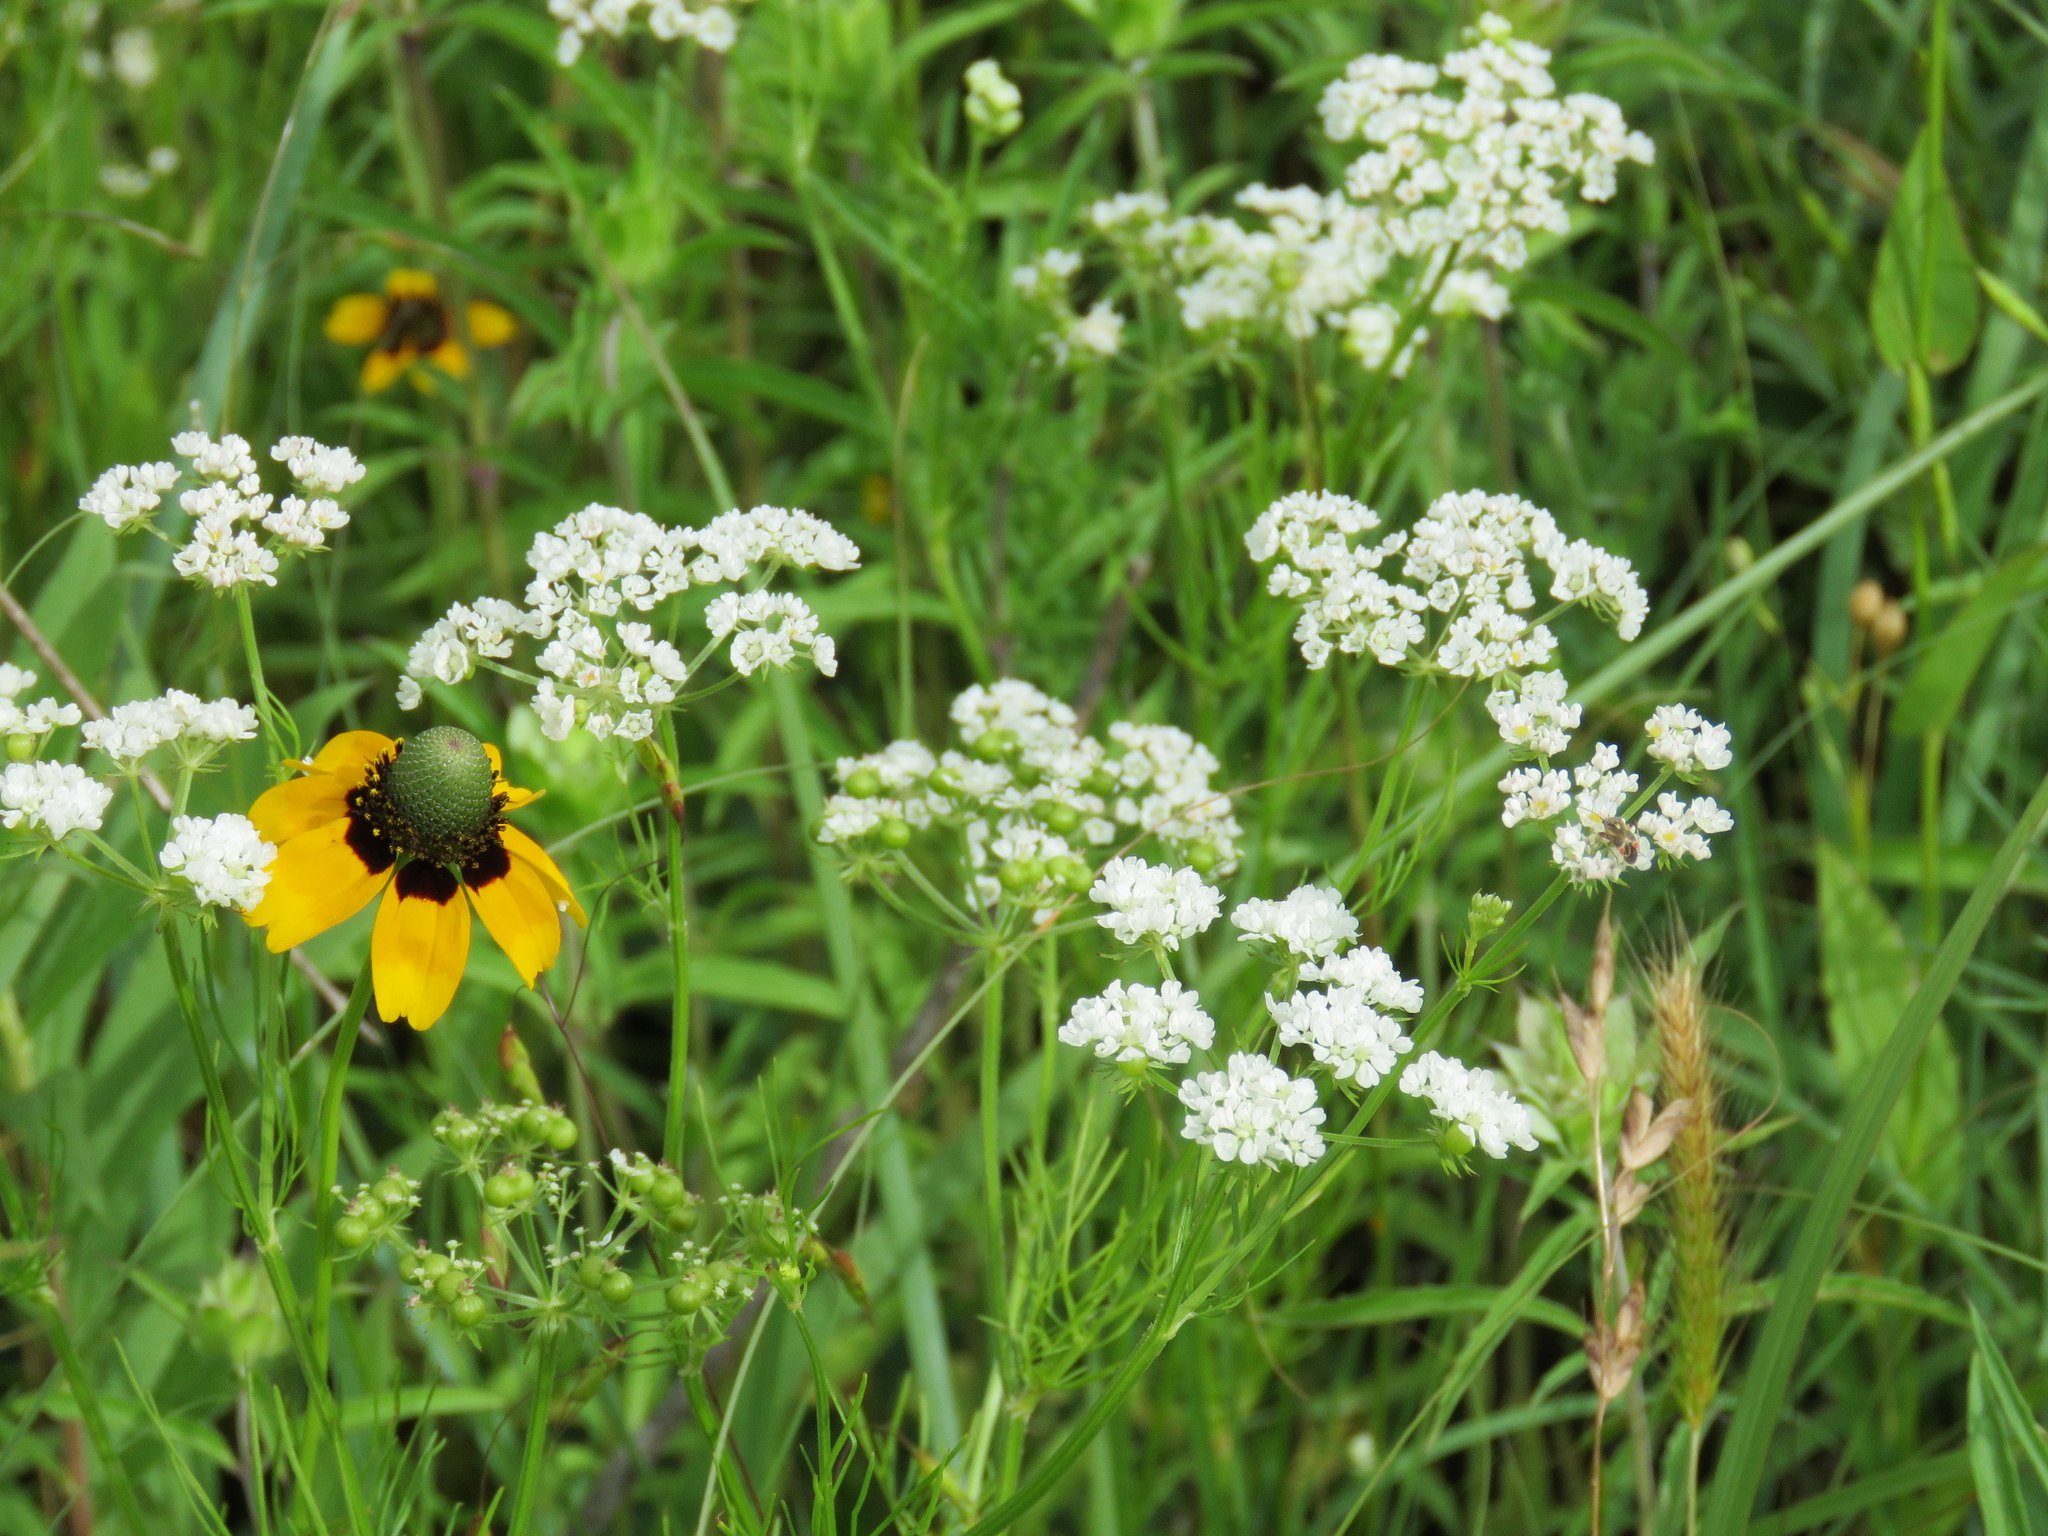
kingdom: Plantae
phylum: Tracheophyta
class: Magnoliopsida
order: Apiales
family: Apiaceae
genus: Atrema
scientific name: Atrema americanum
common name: Prairie-bishop
